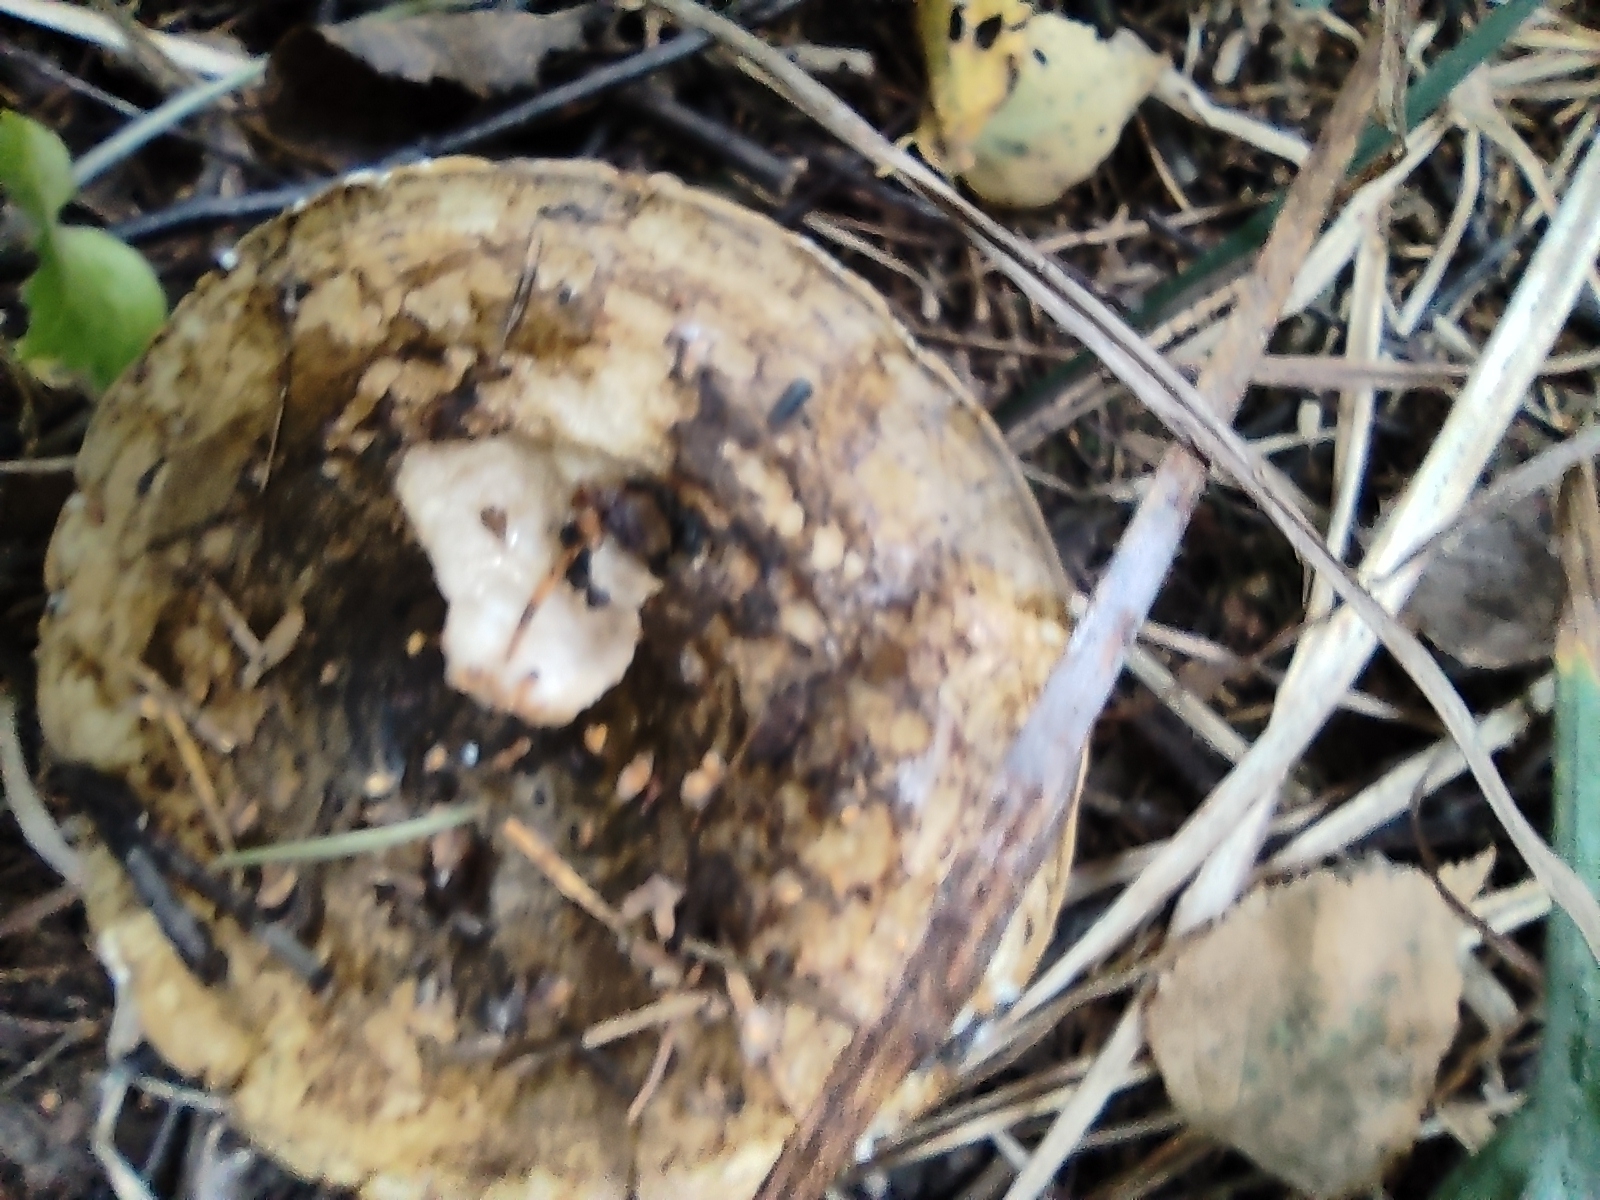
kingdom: Fungi
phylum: Basidiomycota
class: Agaricomycetes
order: Russulales
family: Russulaceae
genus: Lactarius
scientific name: Lactarius turpis
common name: Ugly milk-cap
